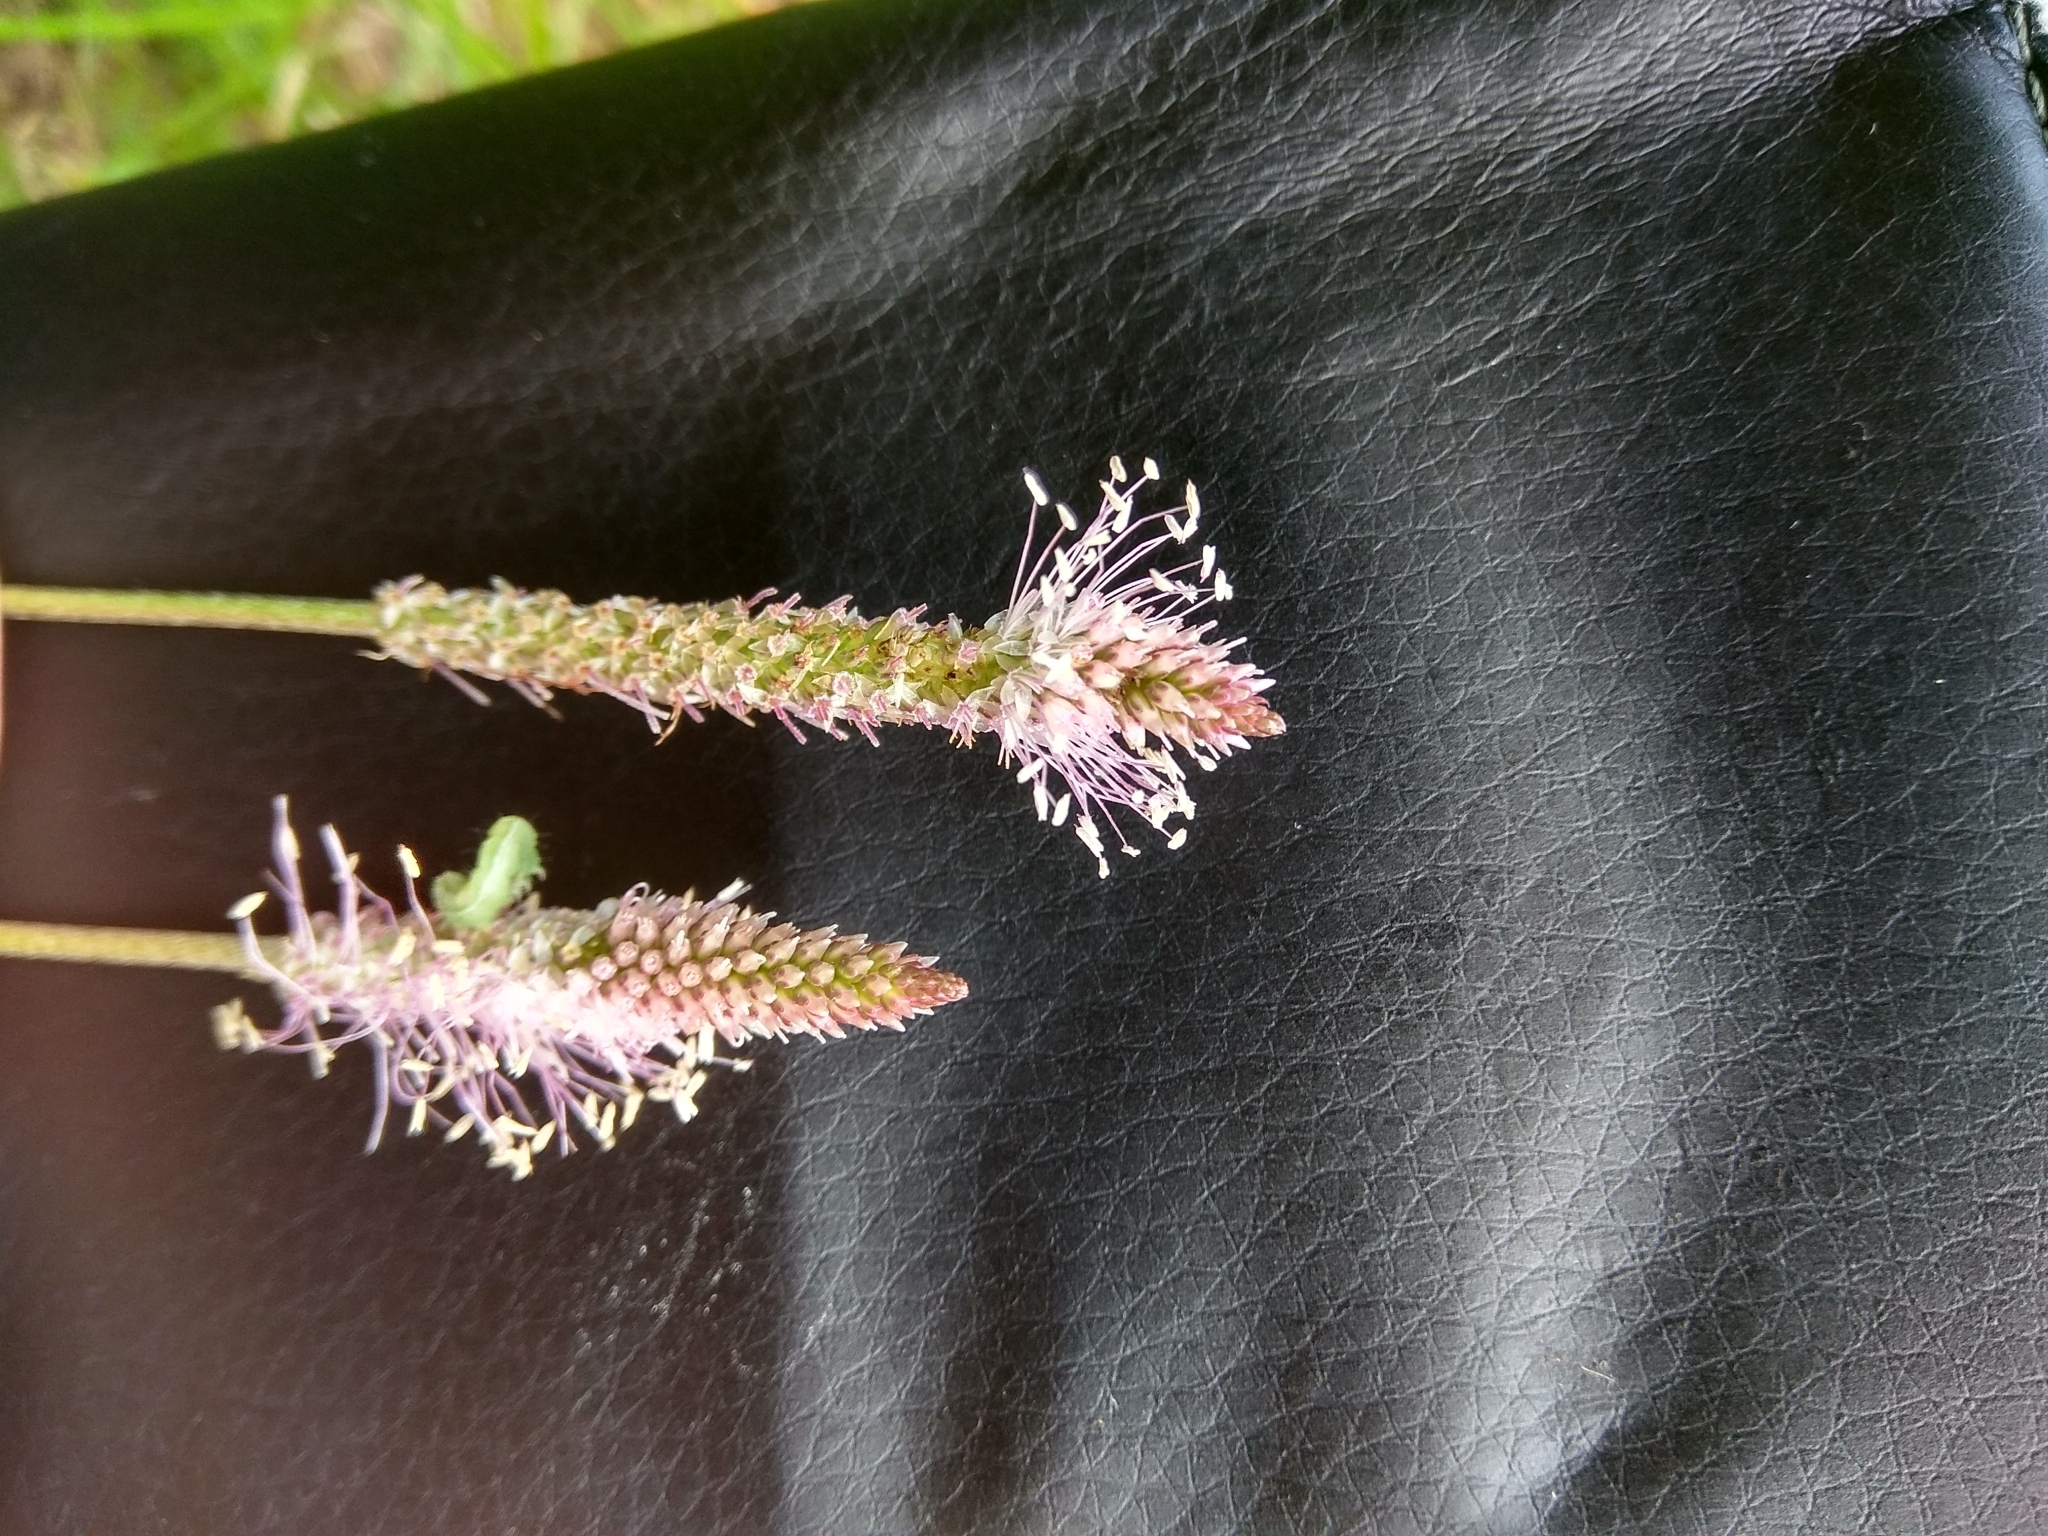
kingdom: Plantae
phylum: Tracheophyta
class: Magnoliopsida
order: Lamiales
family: Plantaginaceae
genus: Plantago
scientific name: Plantago media
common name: Hoary plantain
